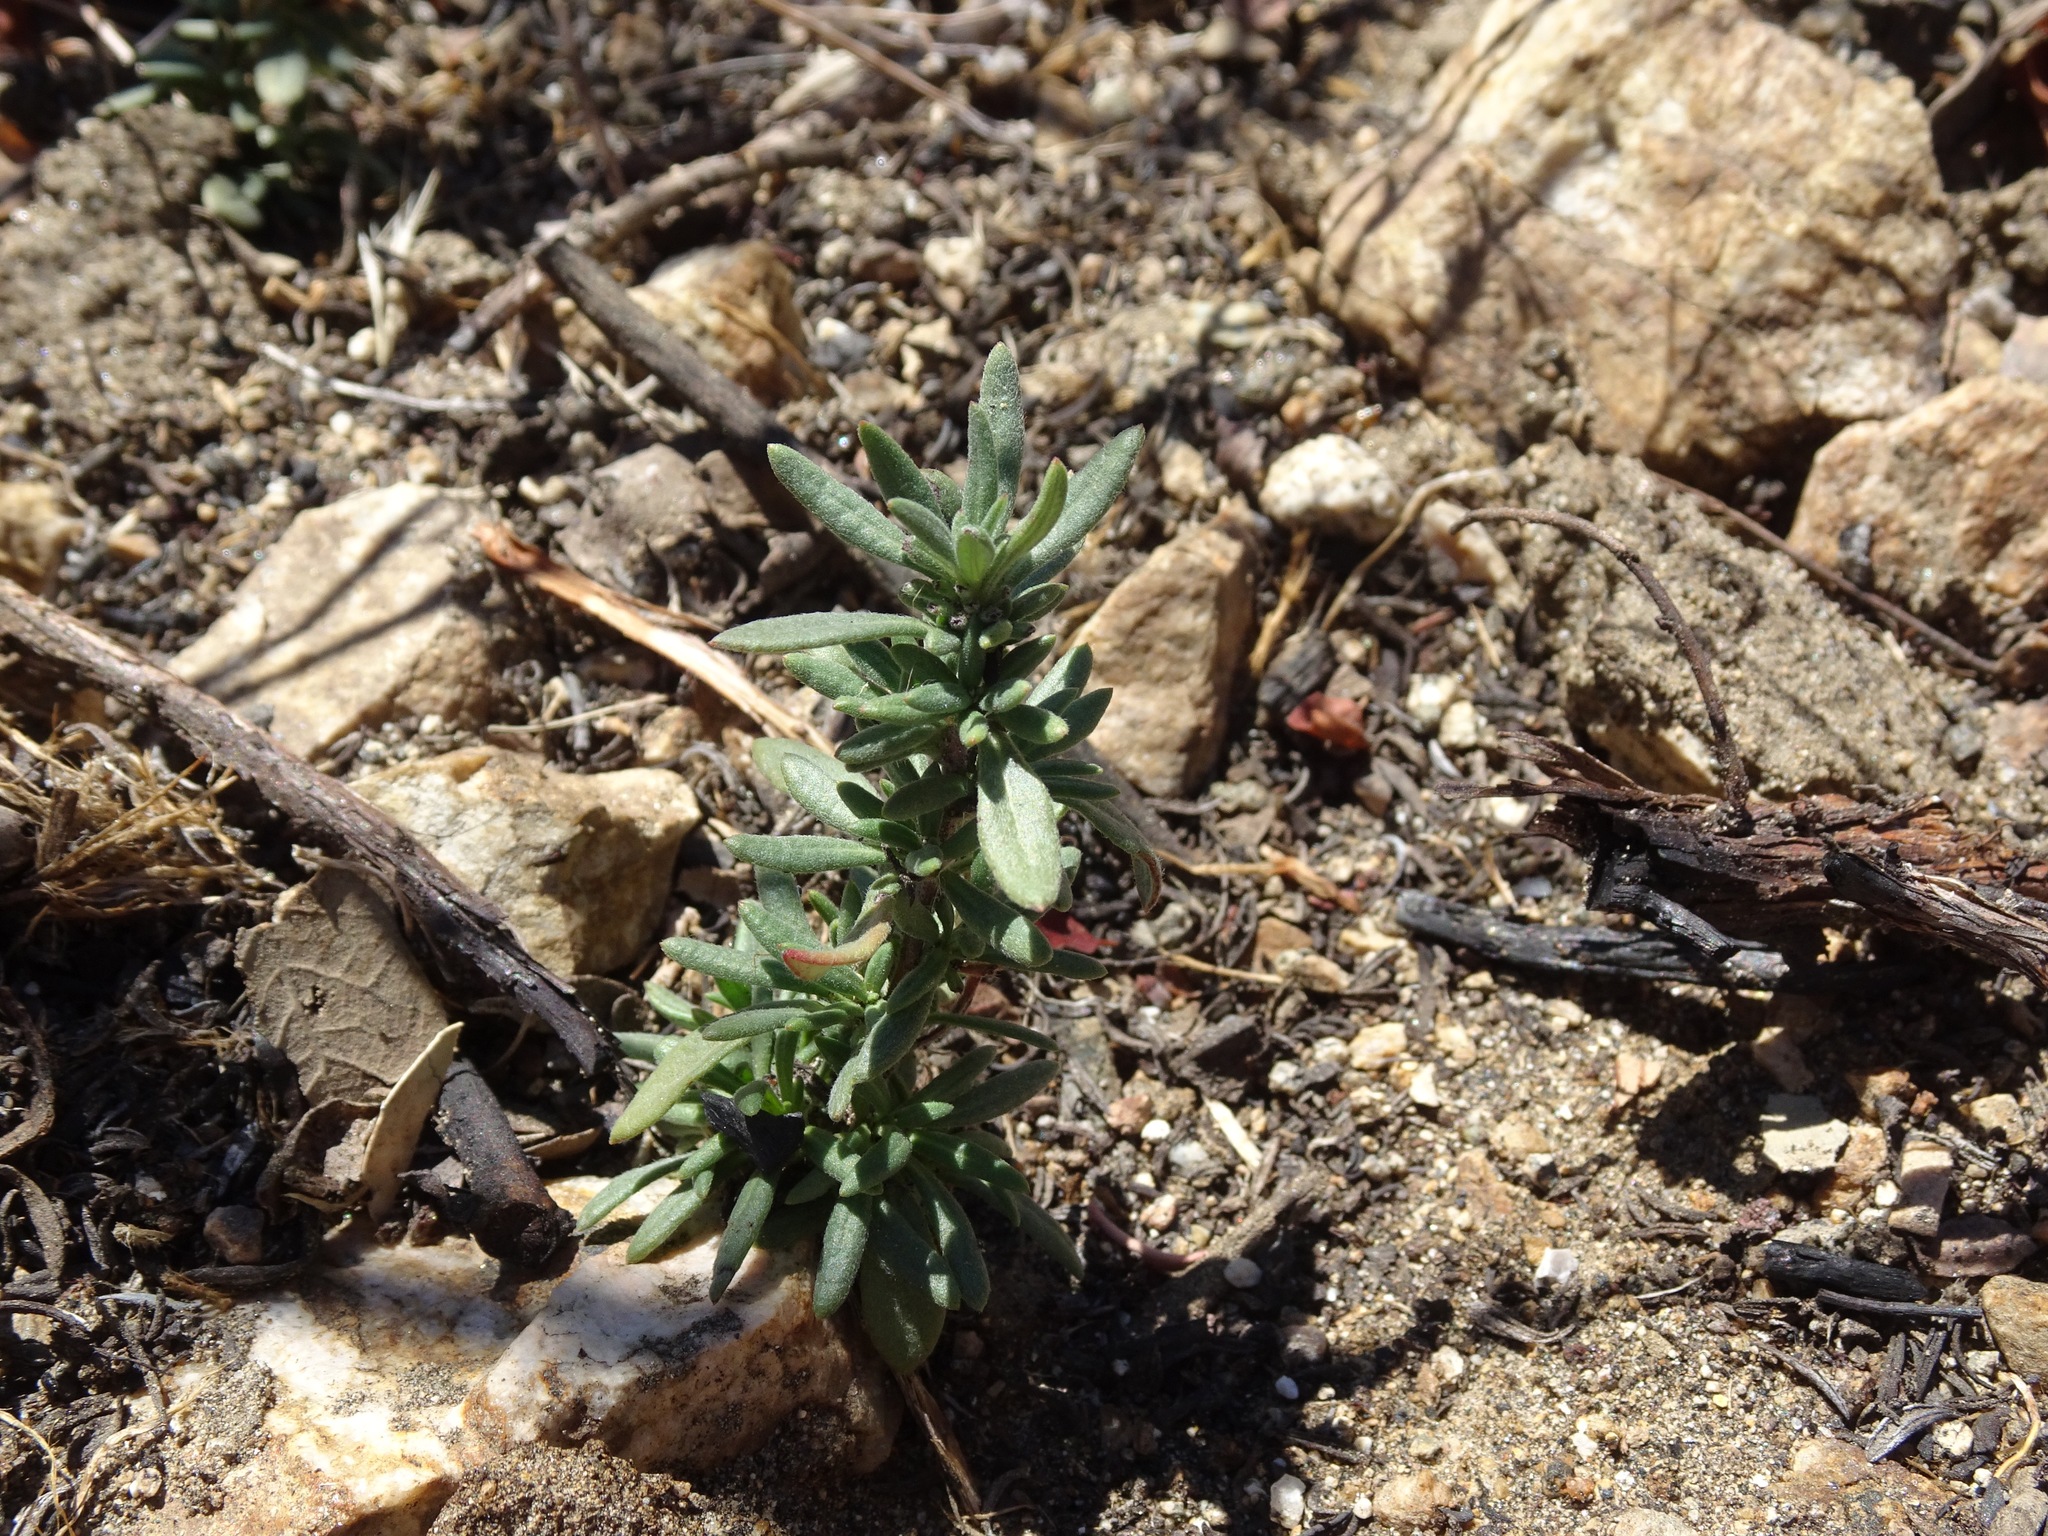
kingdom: Plantae
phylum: Tracheophyta
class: Magnoliopsida
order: Caryophyllales
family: Polygonaceae
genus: Eriogonum
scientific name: Eriogonum fasciculatum
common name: California wild buckwheat
